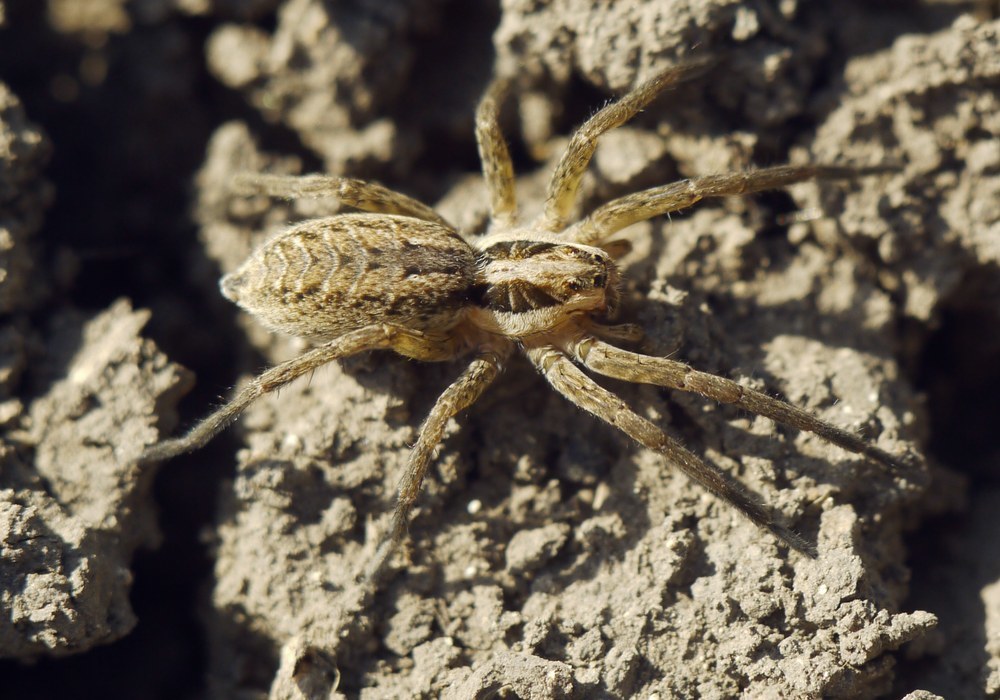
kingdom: Animalia
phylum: Arthropoda
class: Arachnida
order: Araneae
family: Lycosidae
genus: Hogna
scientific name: Hogna radiata
